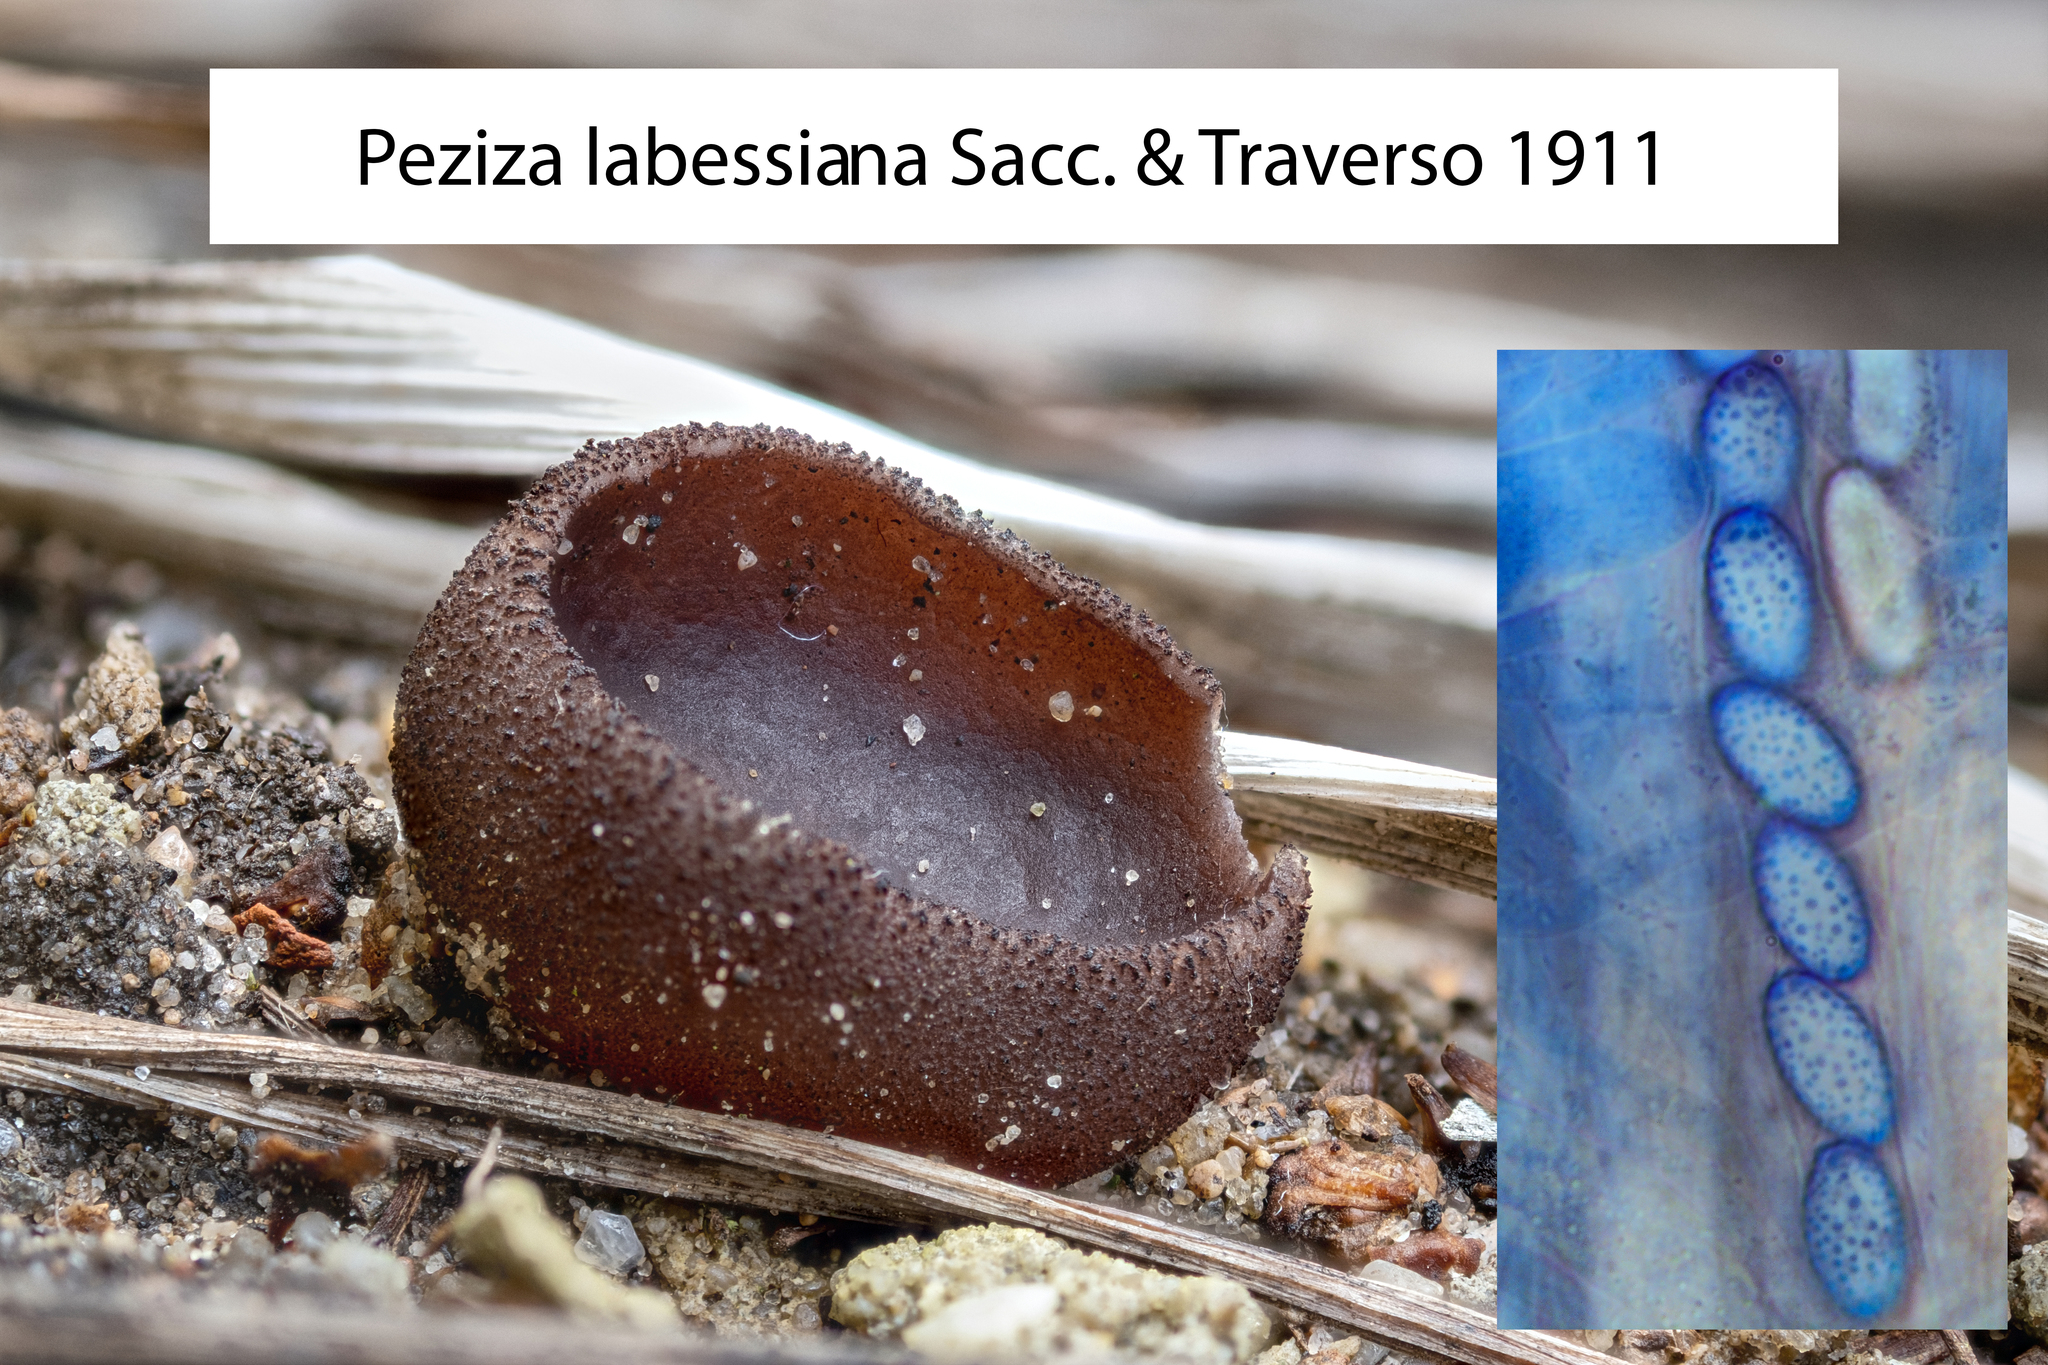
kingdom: Fungi
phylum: Ascomycota
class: Pezizomycetes
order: Pezizales
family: Pezizaceae
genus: Phylloscypha
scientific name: Phylloscypha labessiana
